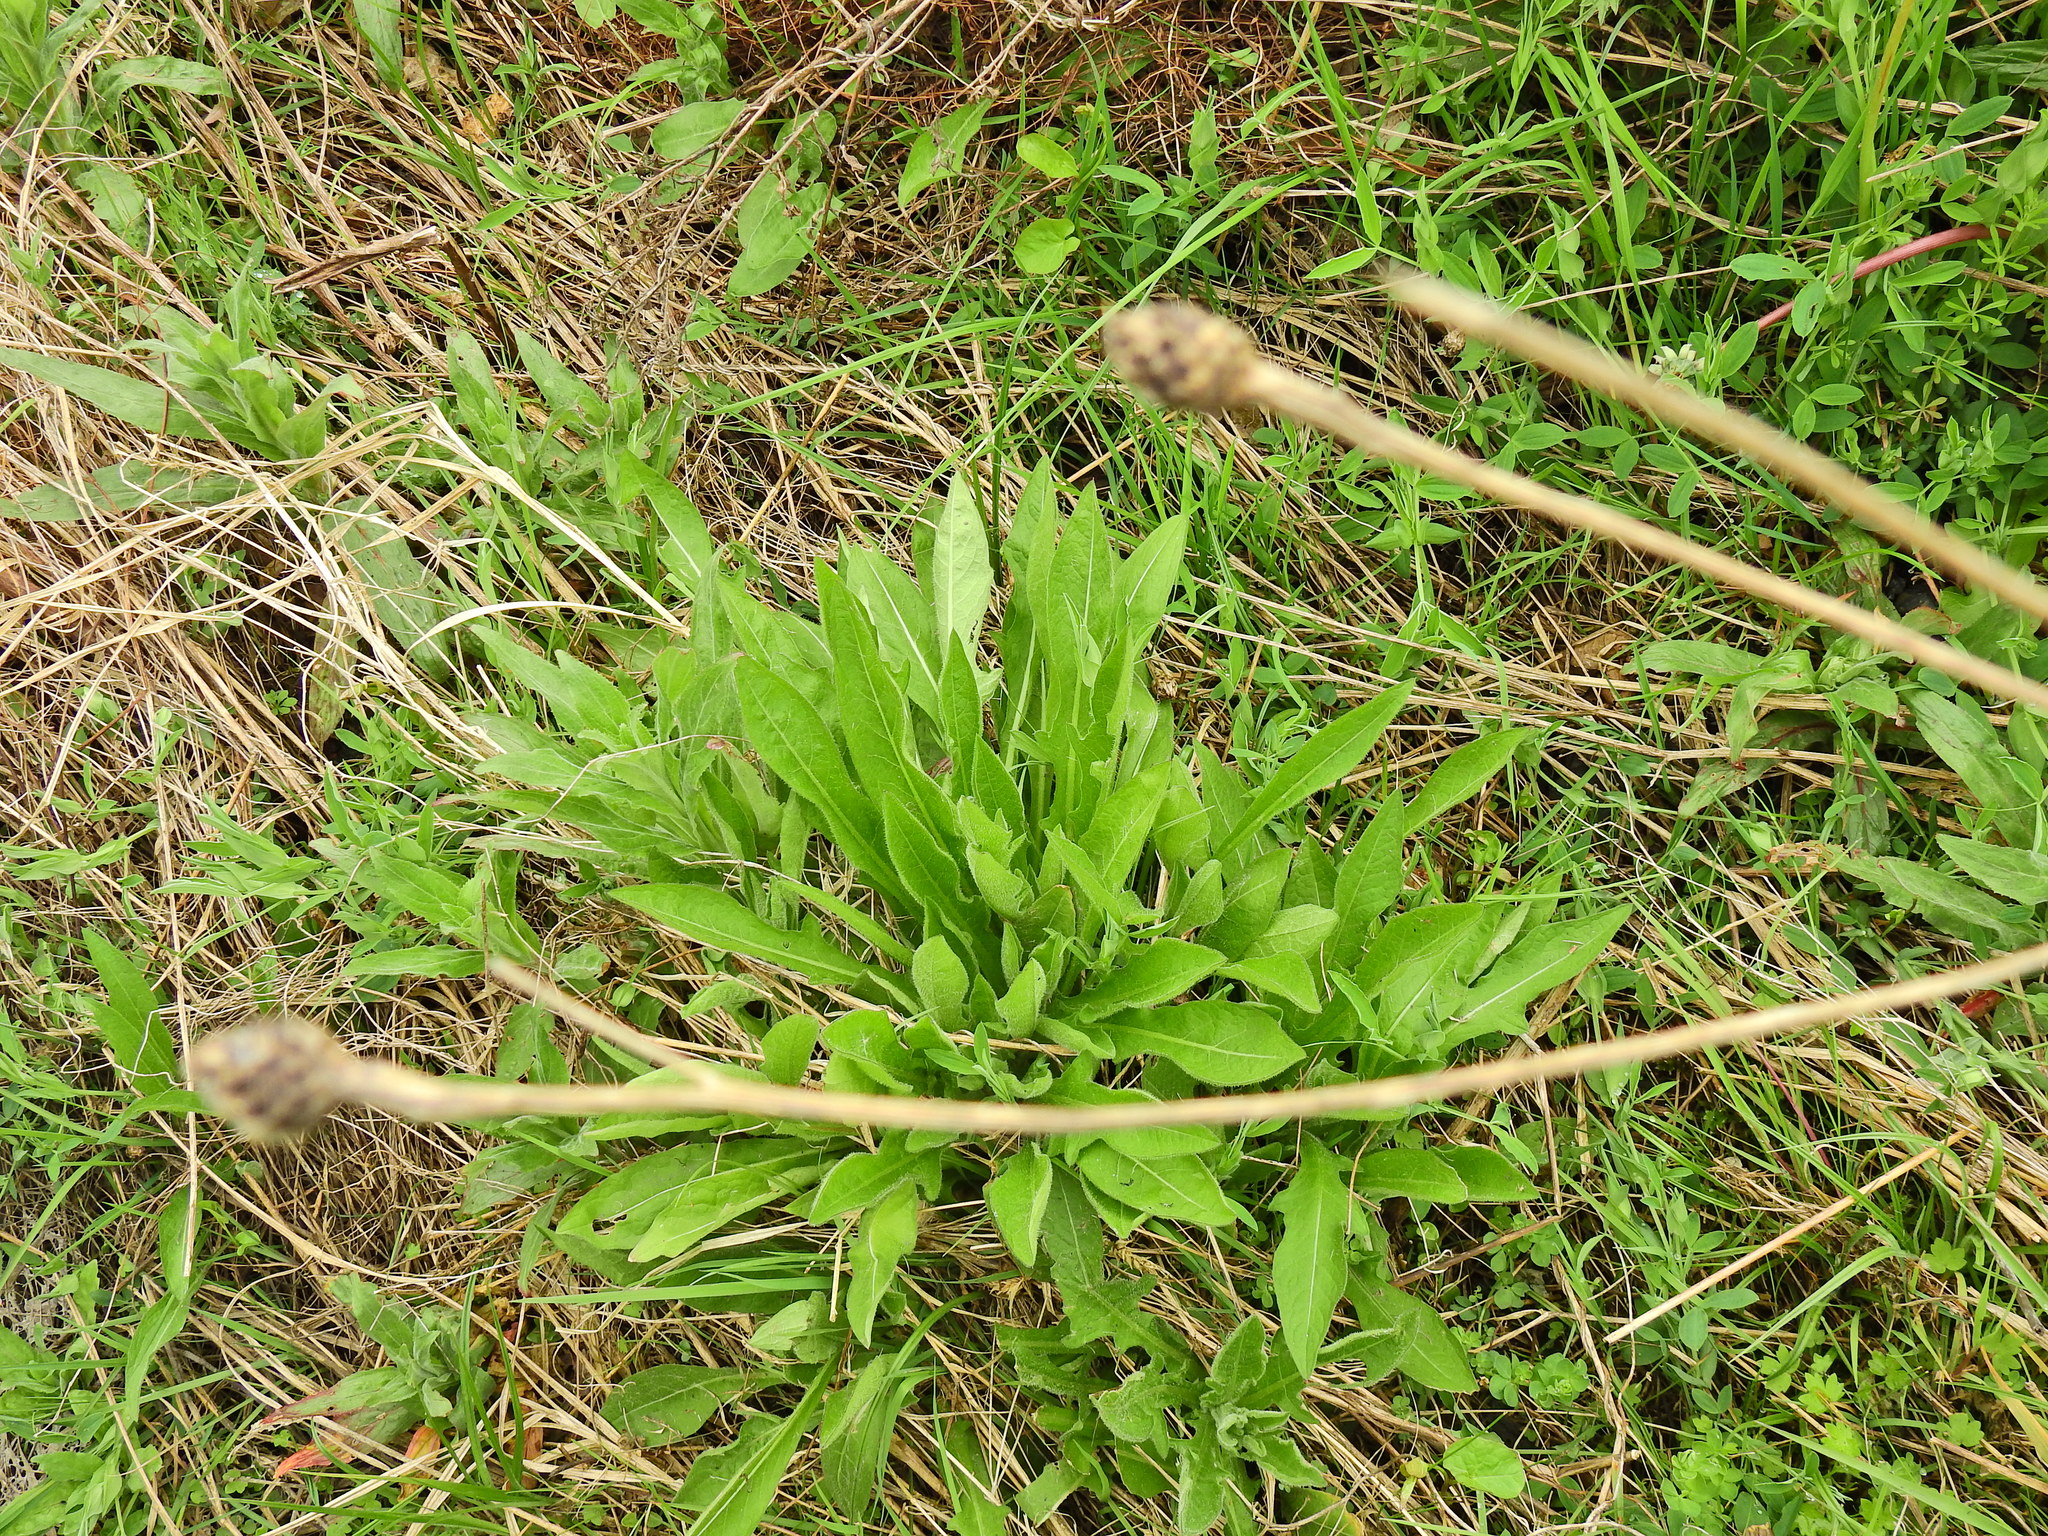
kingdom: Plantae
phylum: Tracheophyta
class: Magnoliopsida
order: Asterales
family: Asteraceae
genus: Centaurea
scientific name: Centaurea nigra
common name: Lesser knapweed
